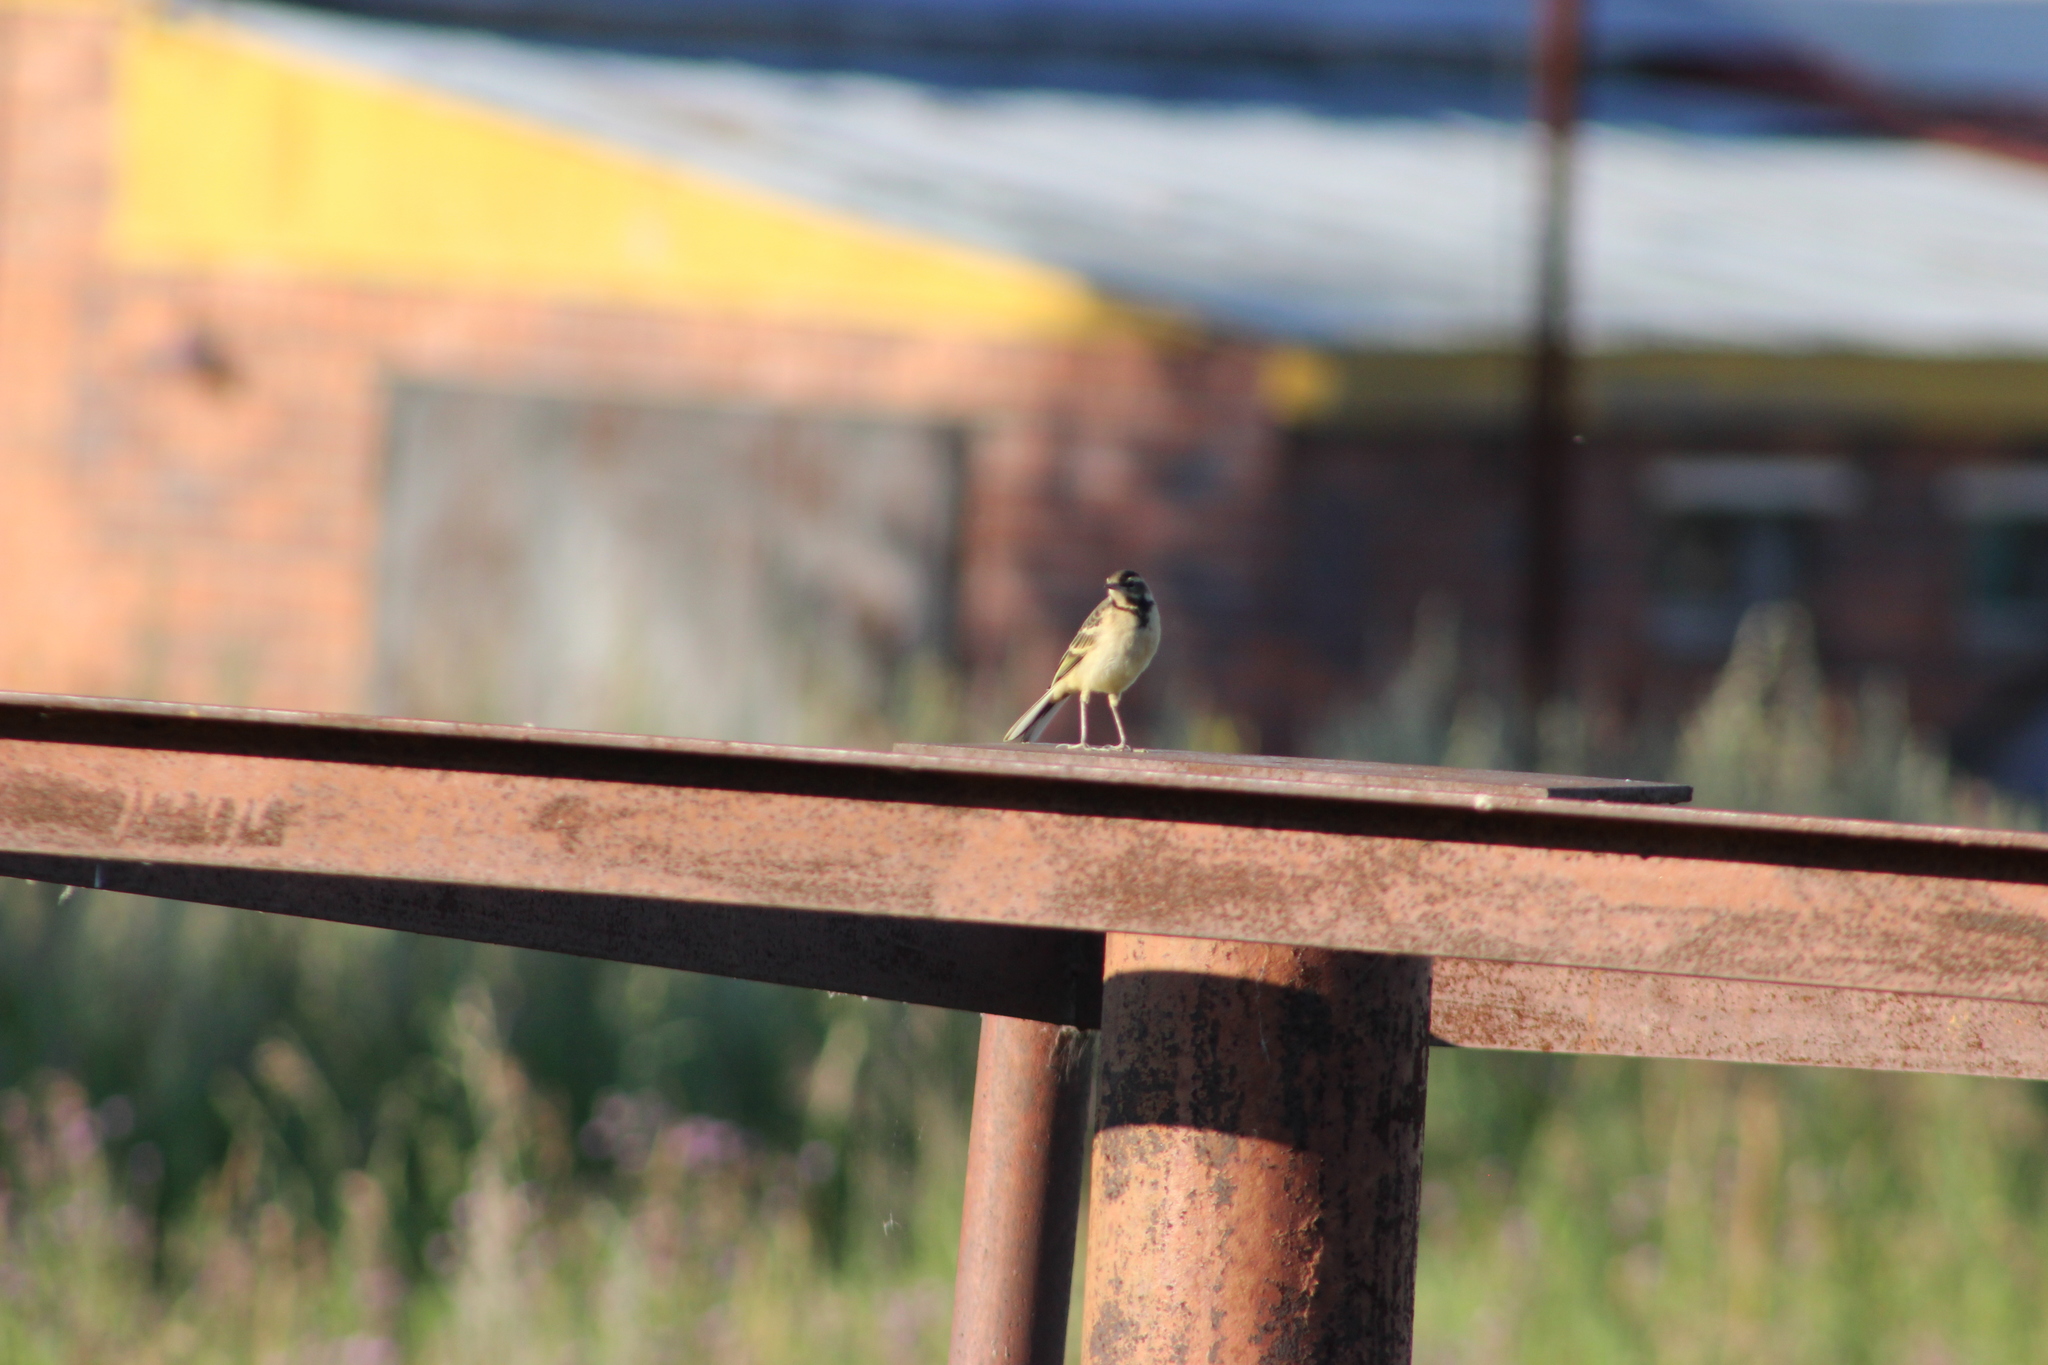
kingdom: Animalia
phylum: Chordata
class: Aves
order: Passeriformes
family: Motacillidae
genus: Motacilla
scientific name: Motacilla flava
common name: Western yellow wagtail
